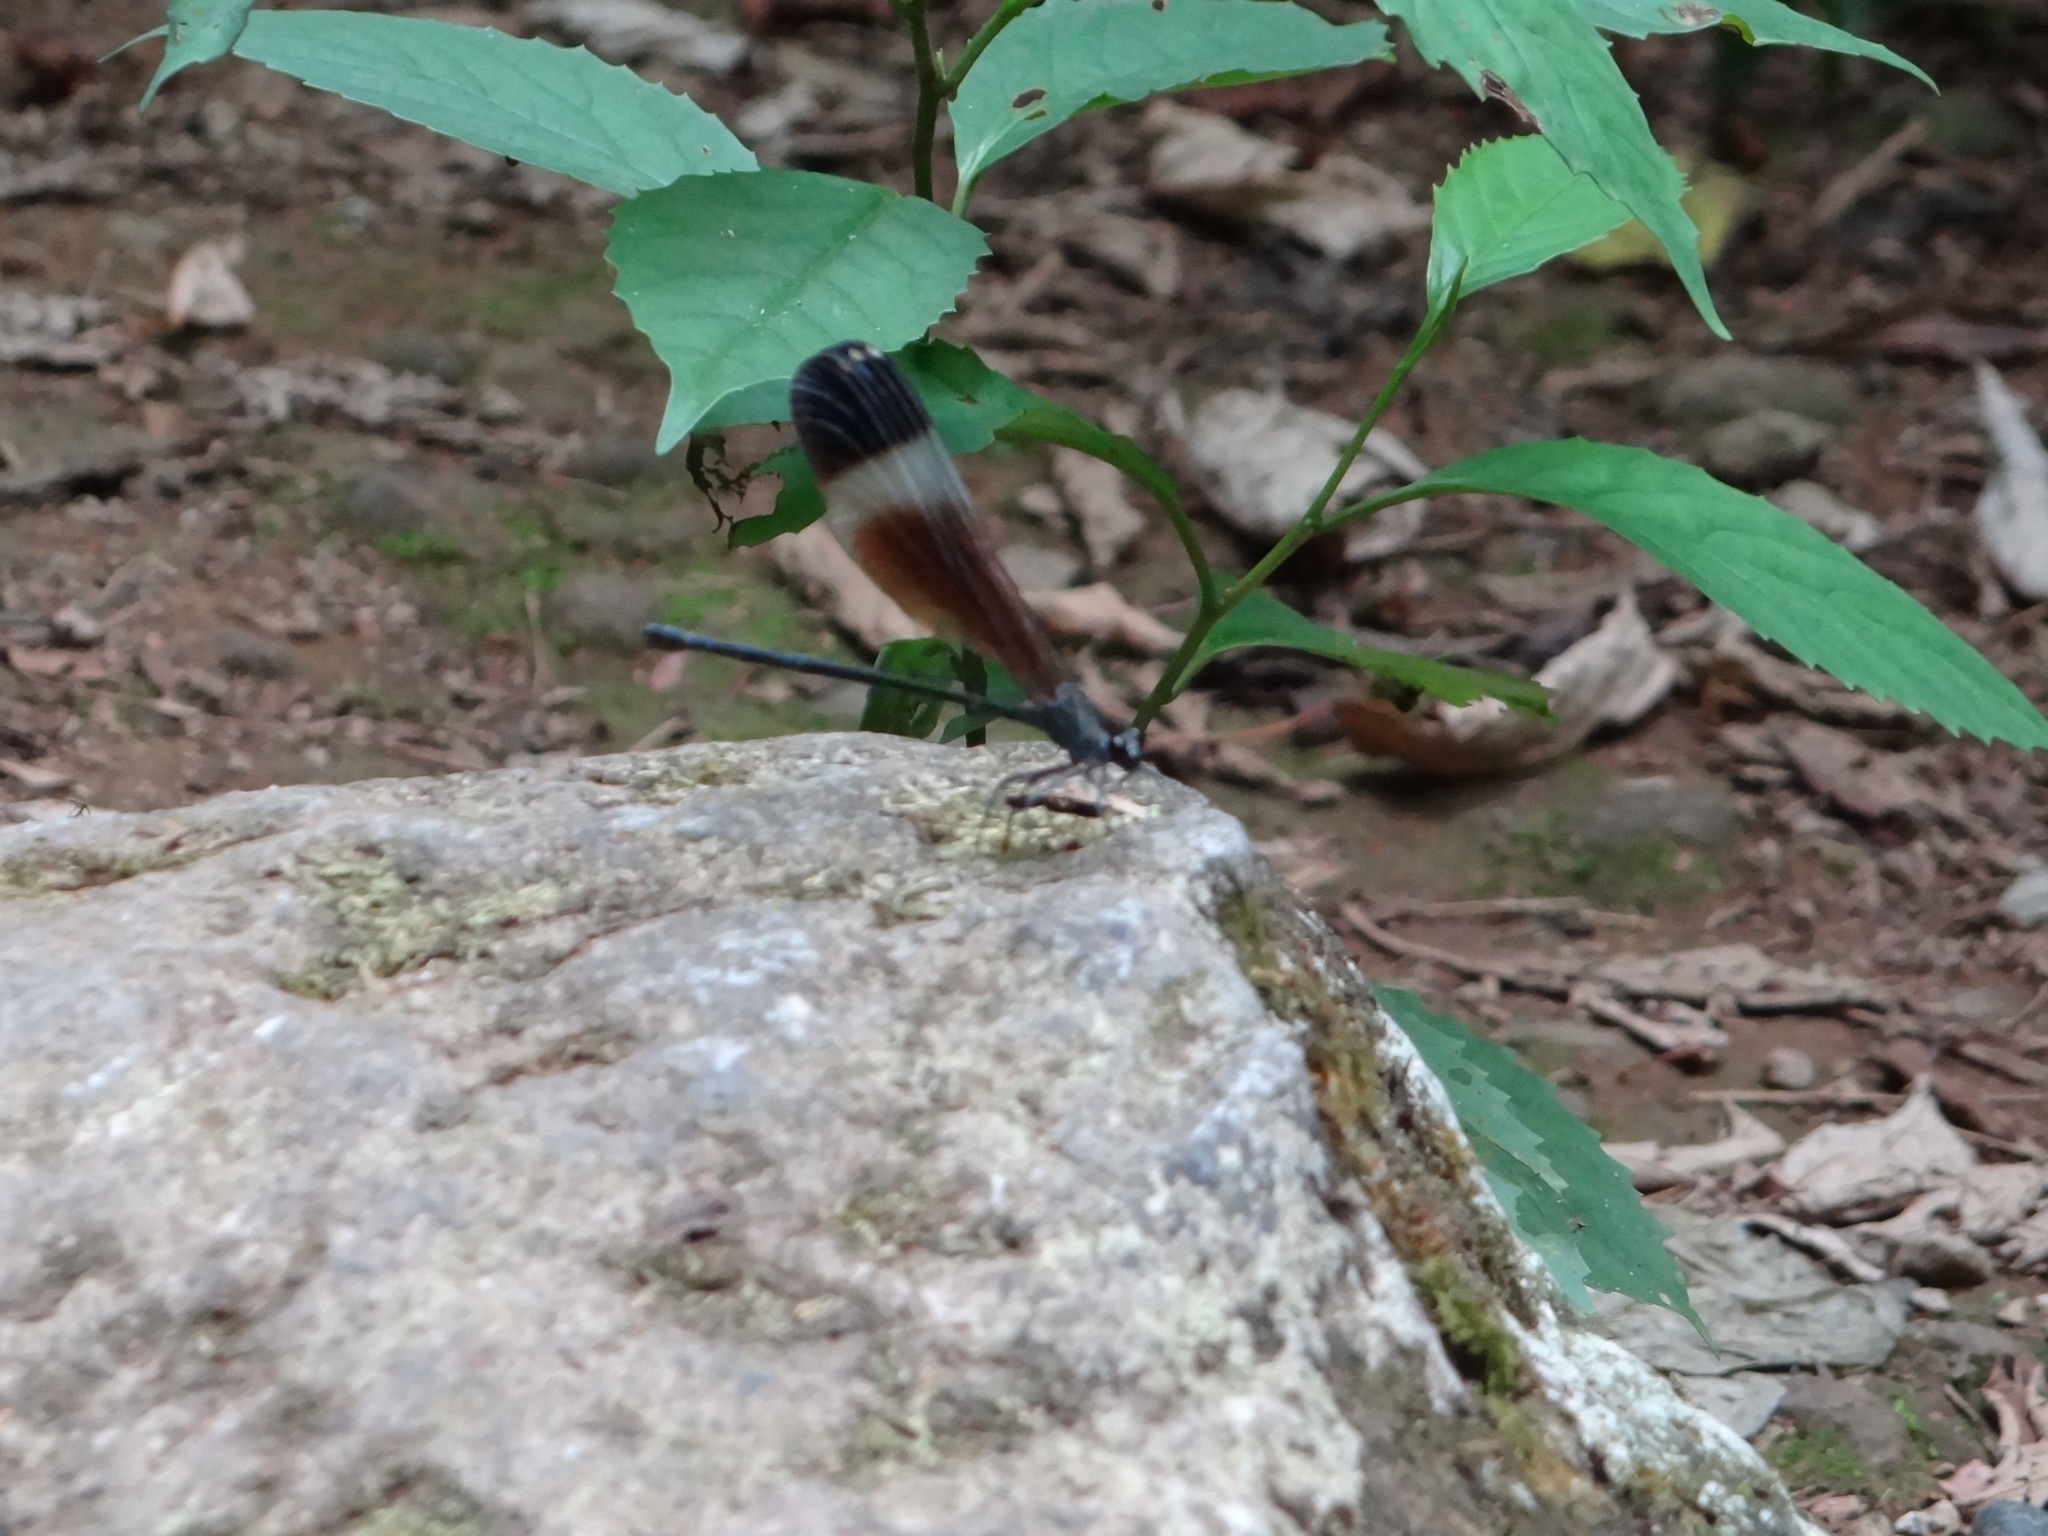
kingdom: Animalia
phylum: Arthropoda
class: Insecta
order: Odonata
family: Calopterygidae
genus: Psolodesmus
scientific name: Psolodesmus mandarinus
